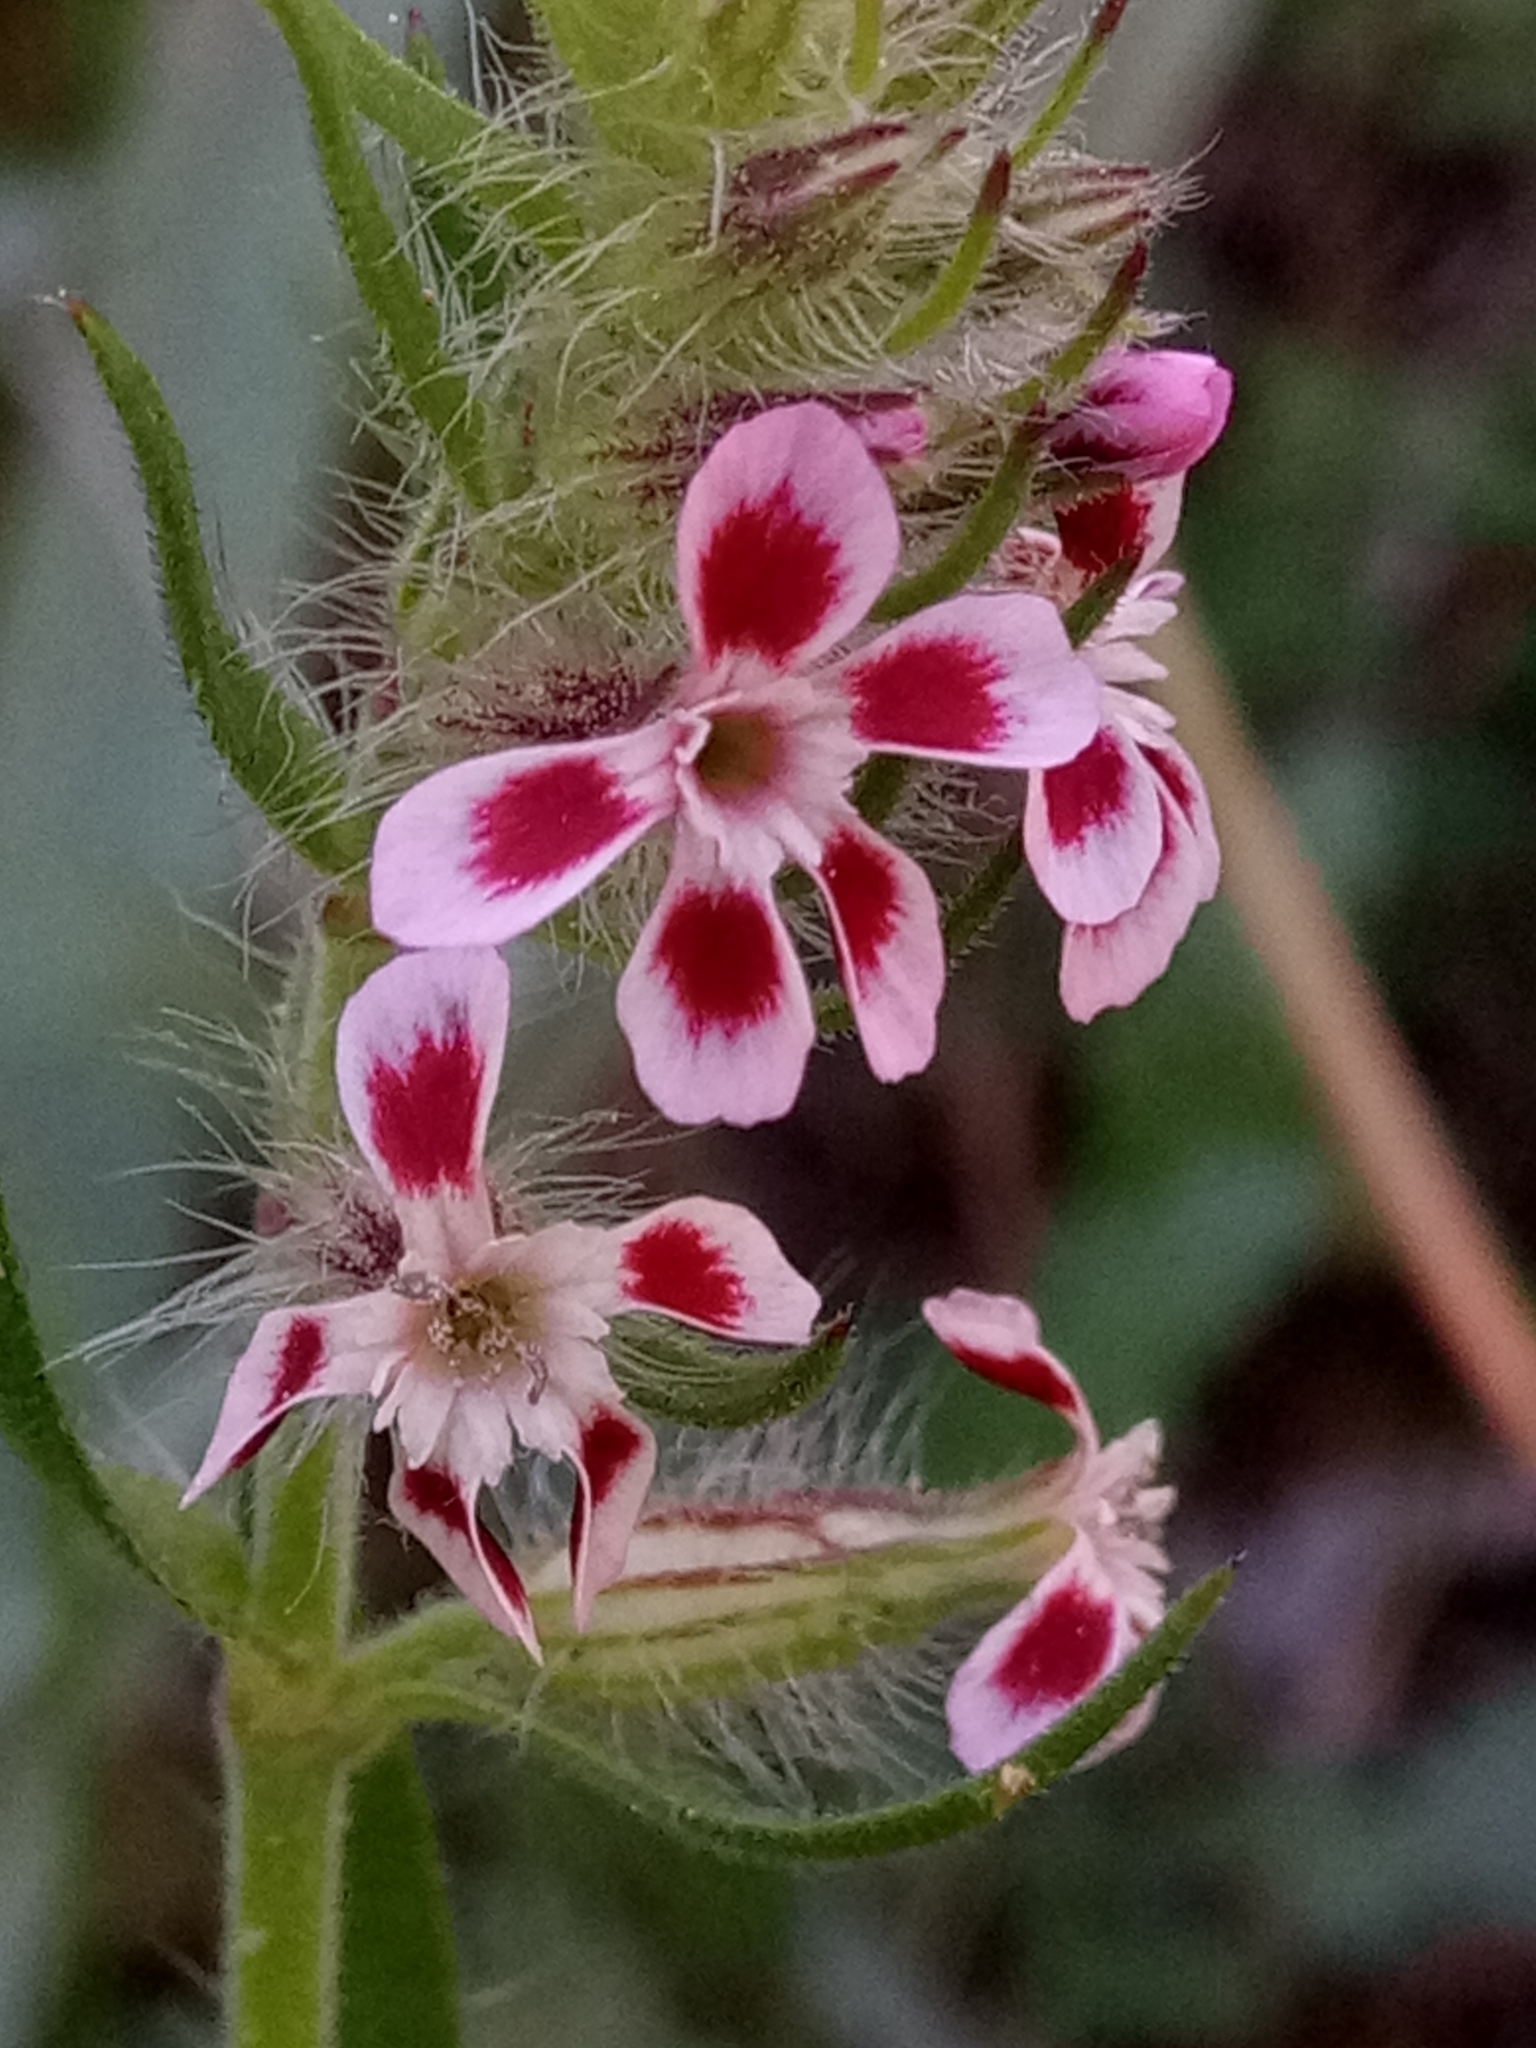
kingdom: Plantae
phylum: Tracheophyta
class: Magnoliopsida
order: Caryophyllales
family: Caryophyllaceae
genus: Silene
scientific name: Silene gallica
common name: Small-flowered catchfly
